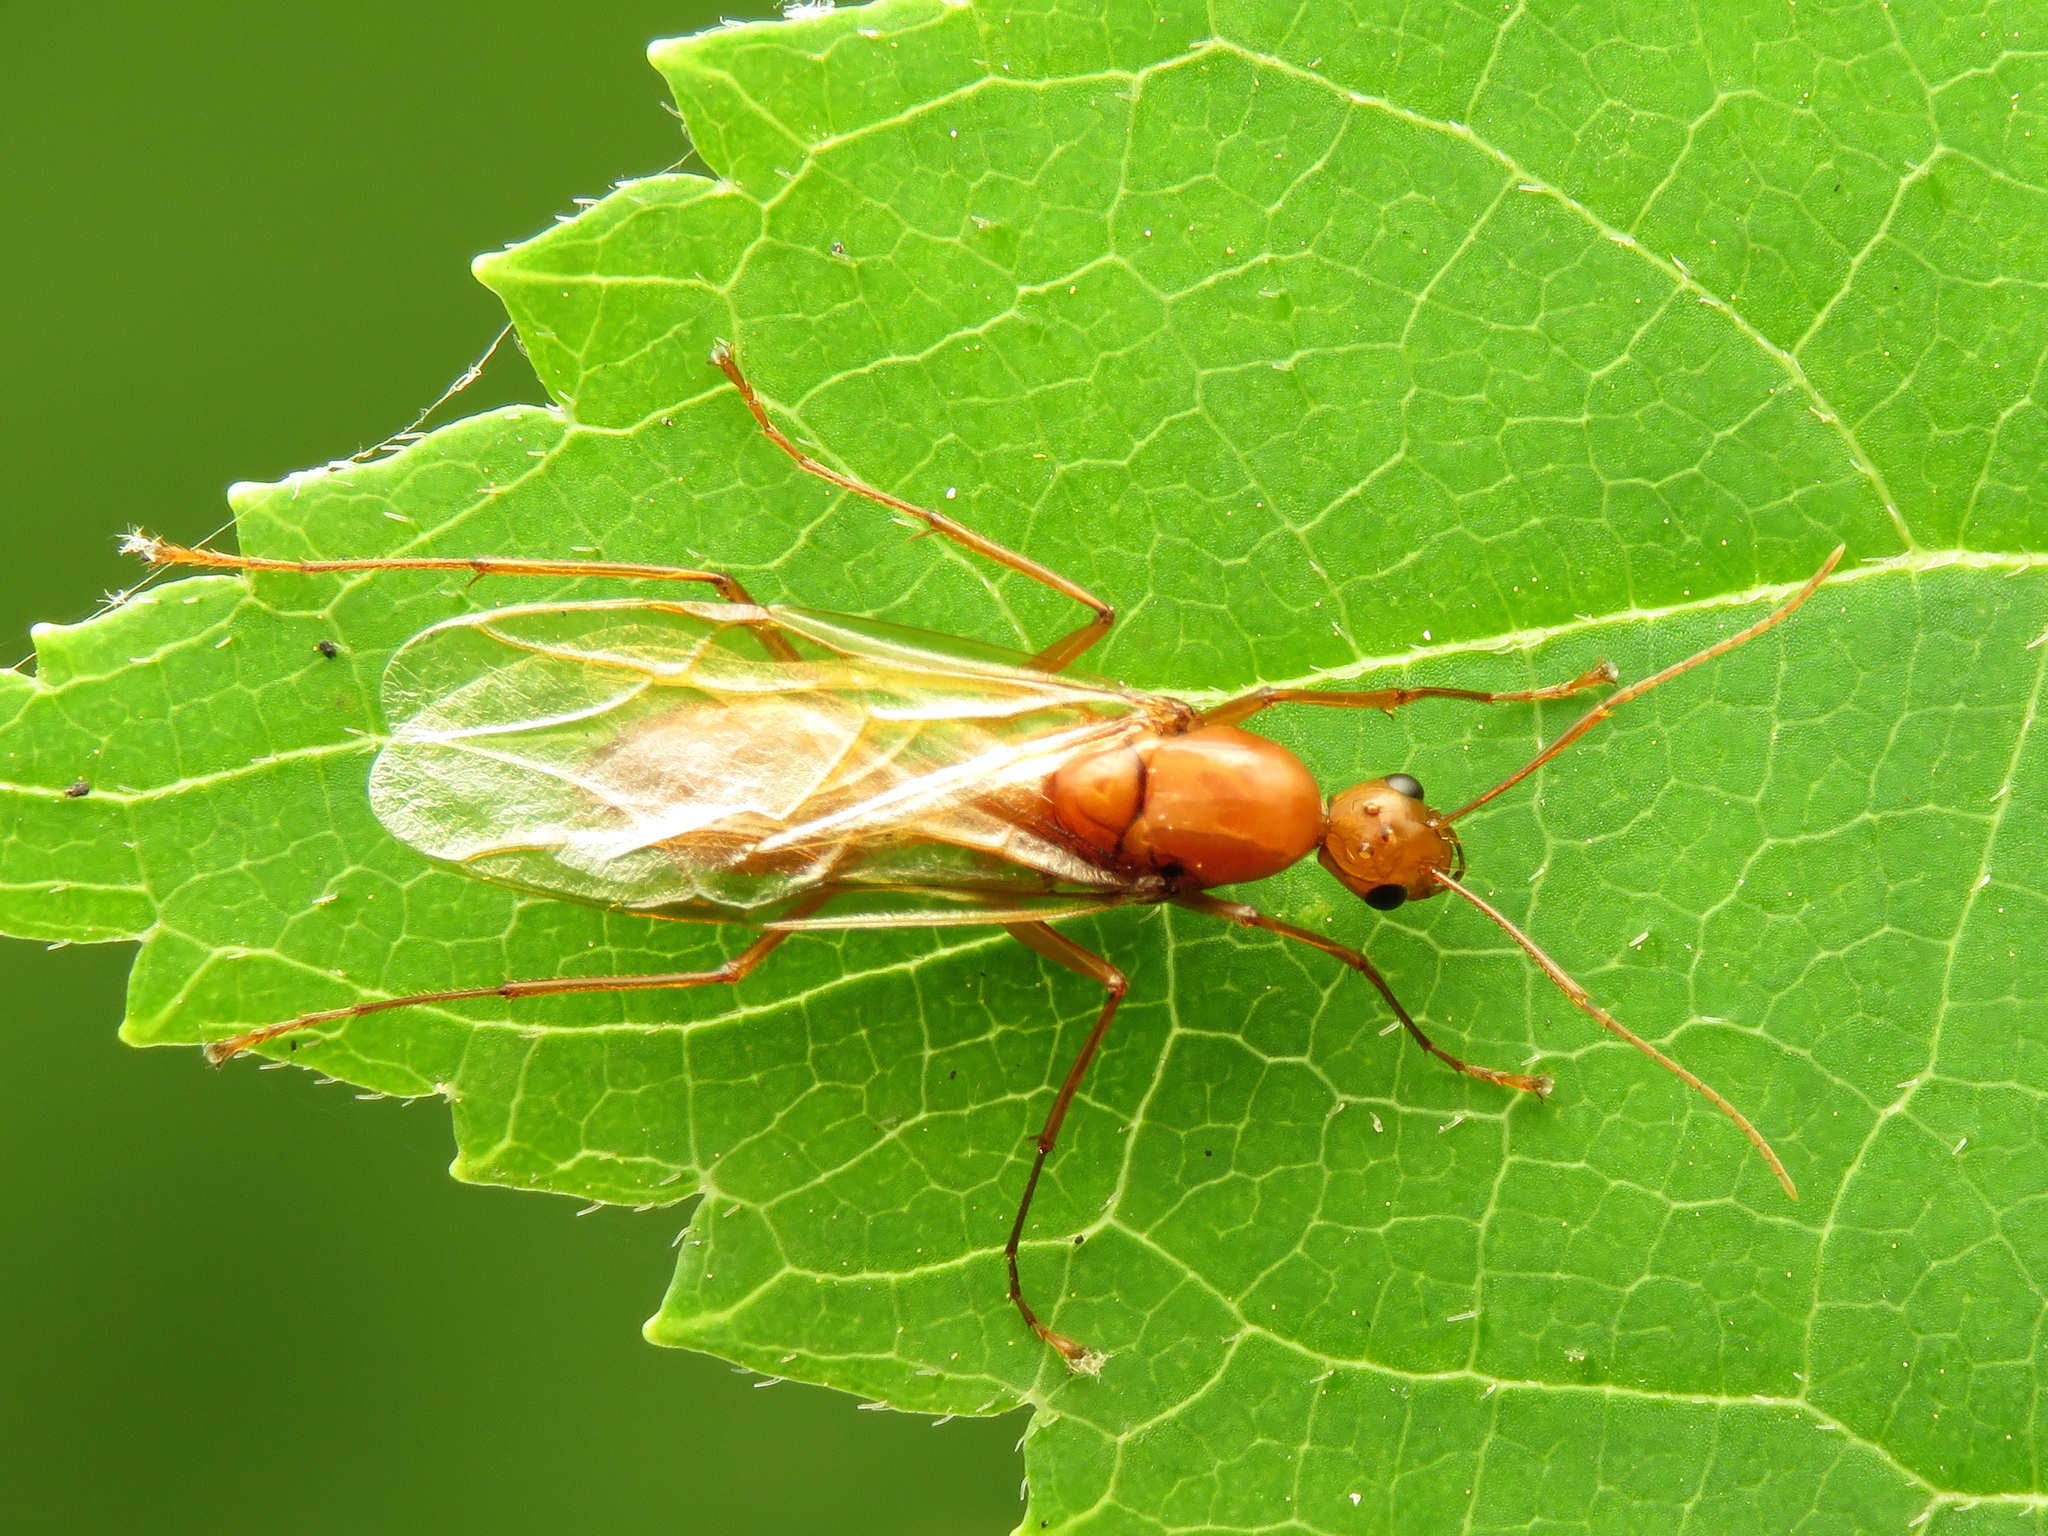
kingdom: Animalia
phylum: Arthropoda
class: Insecta
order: Hymenoptera
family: Formicidae
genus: Camponotus
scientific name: Camponotus castaneus
